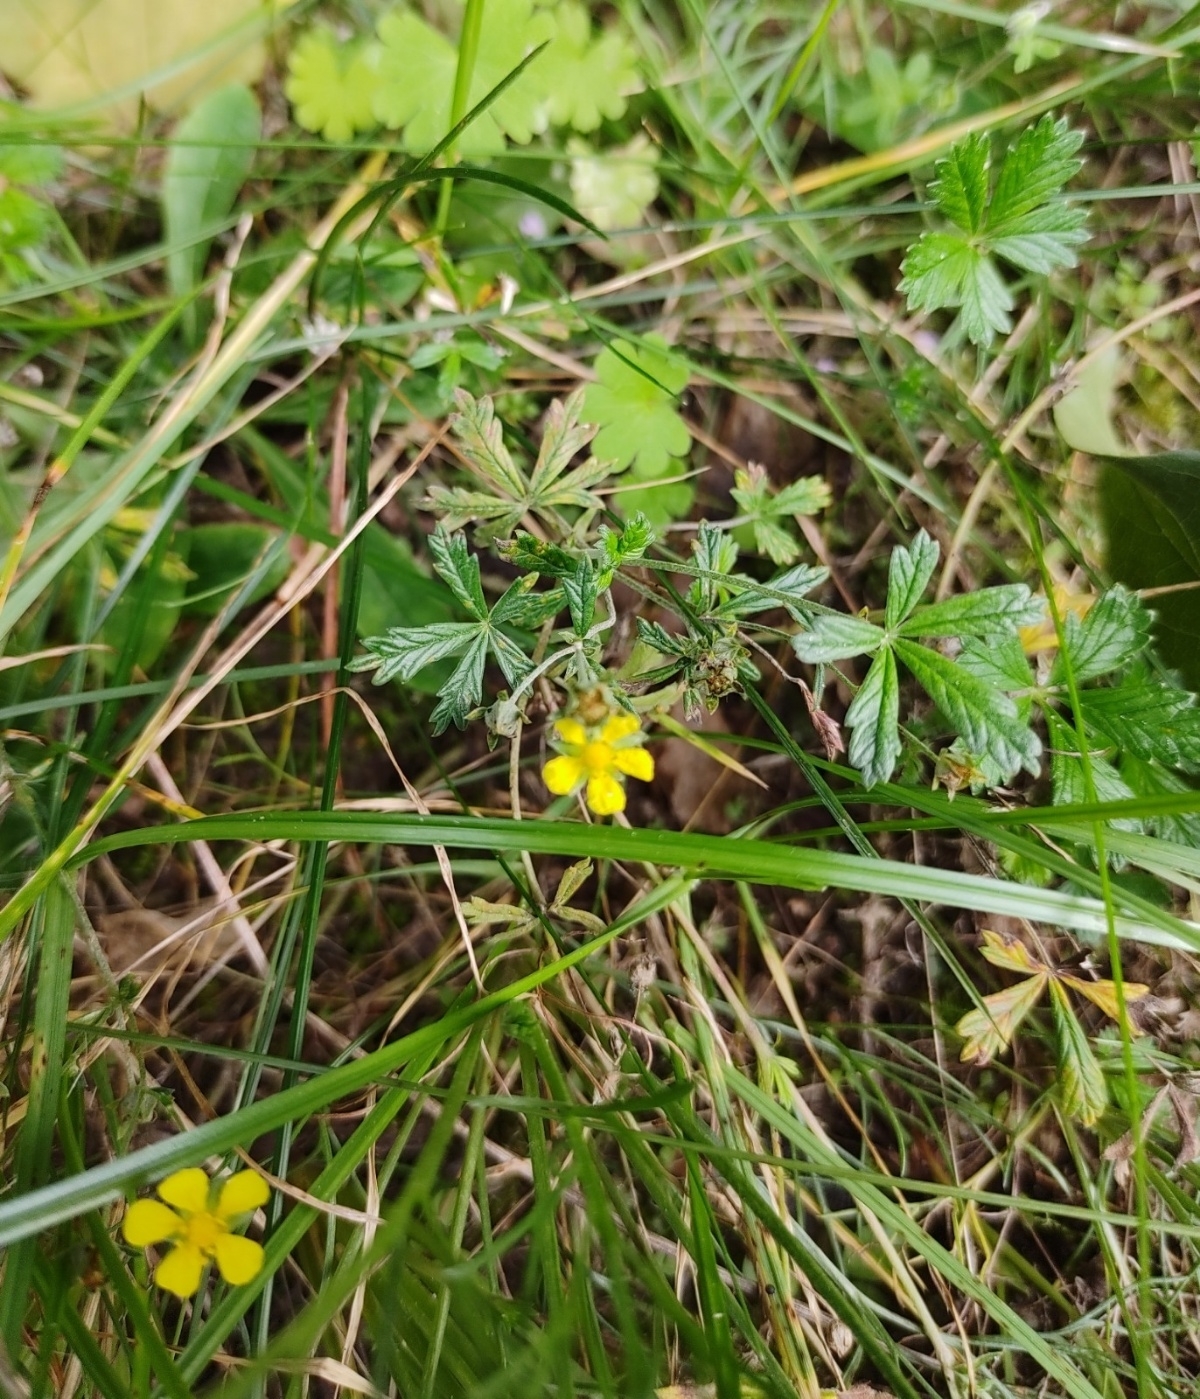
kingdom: Plantae
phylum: Tracheophyta
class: Magnoliopsida
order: Rosales
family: Rosaceae
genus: Potentilla
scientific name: Potentilla erecta
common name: Tormentil
